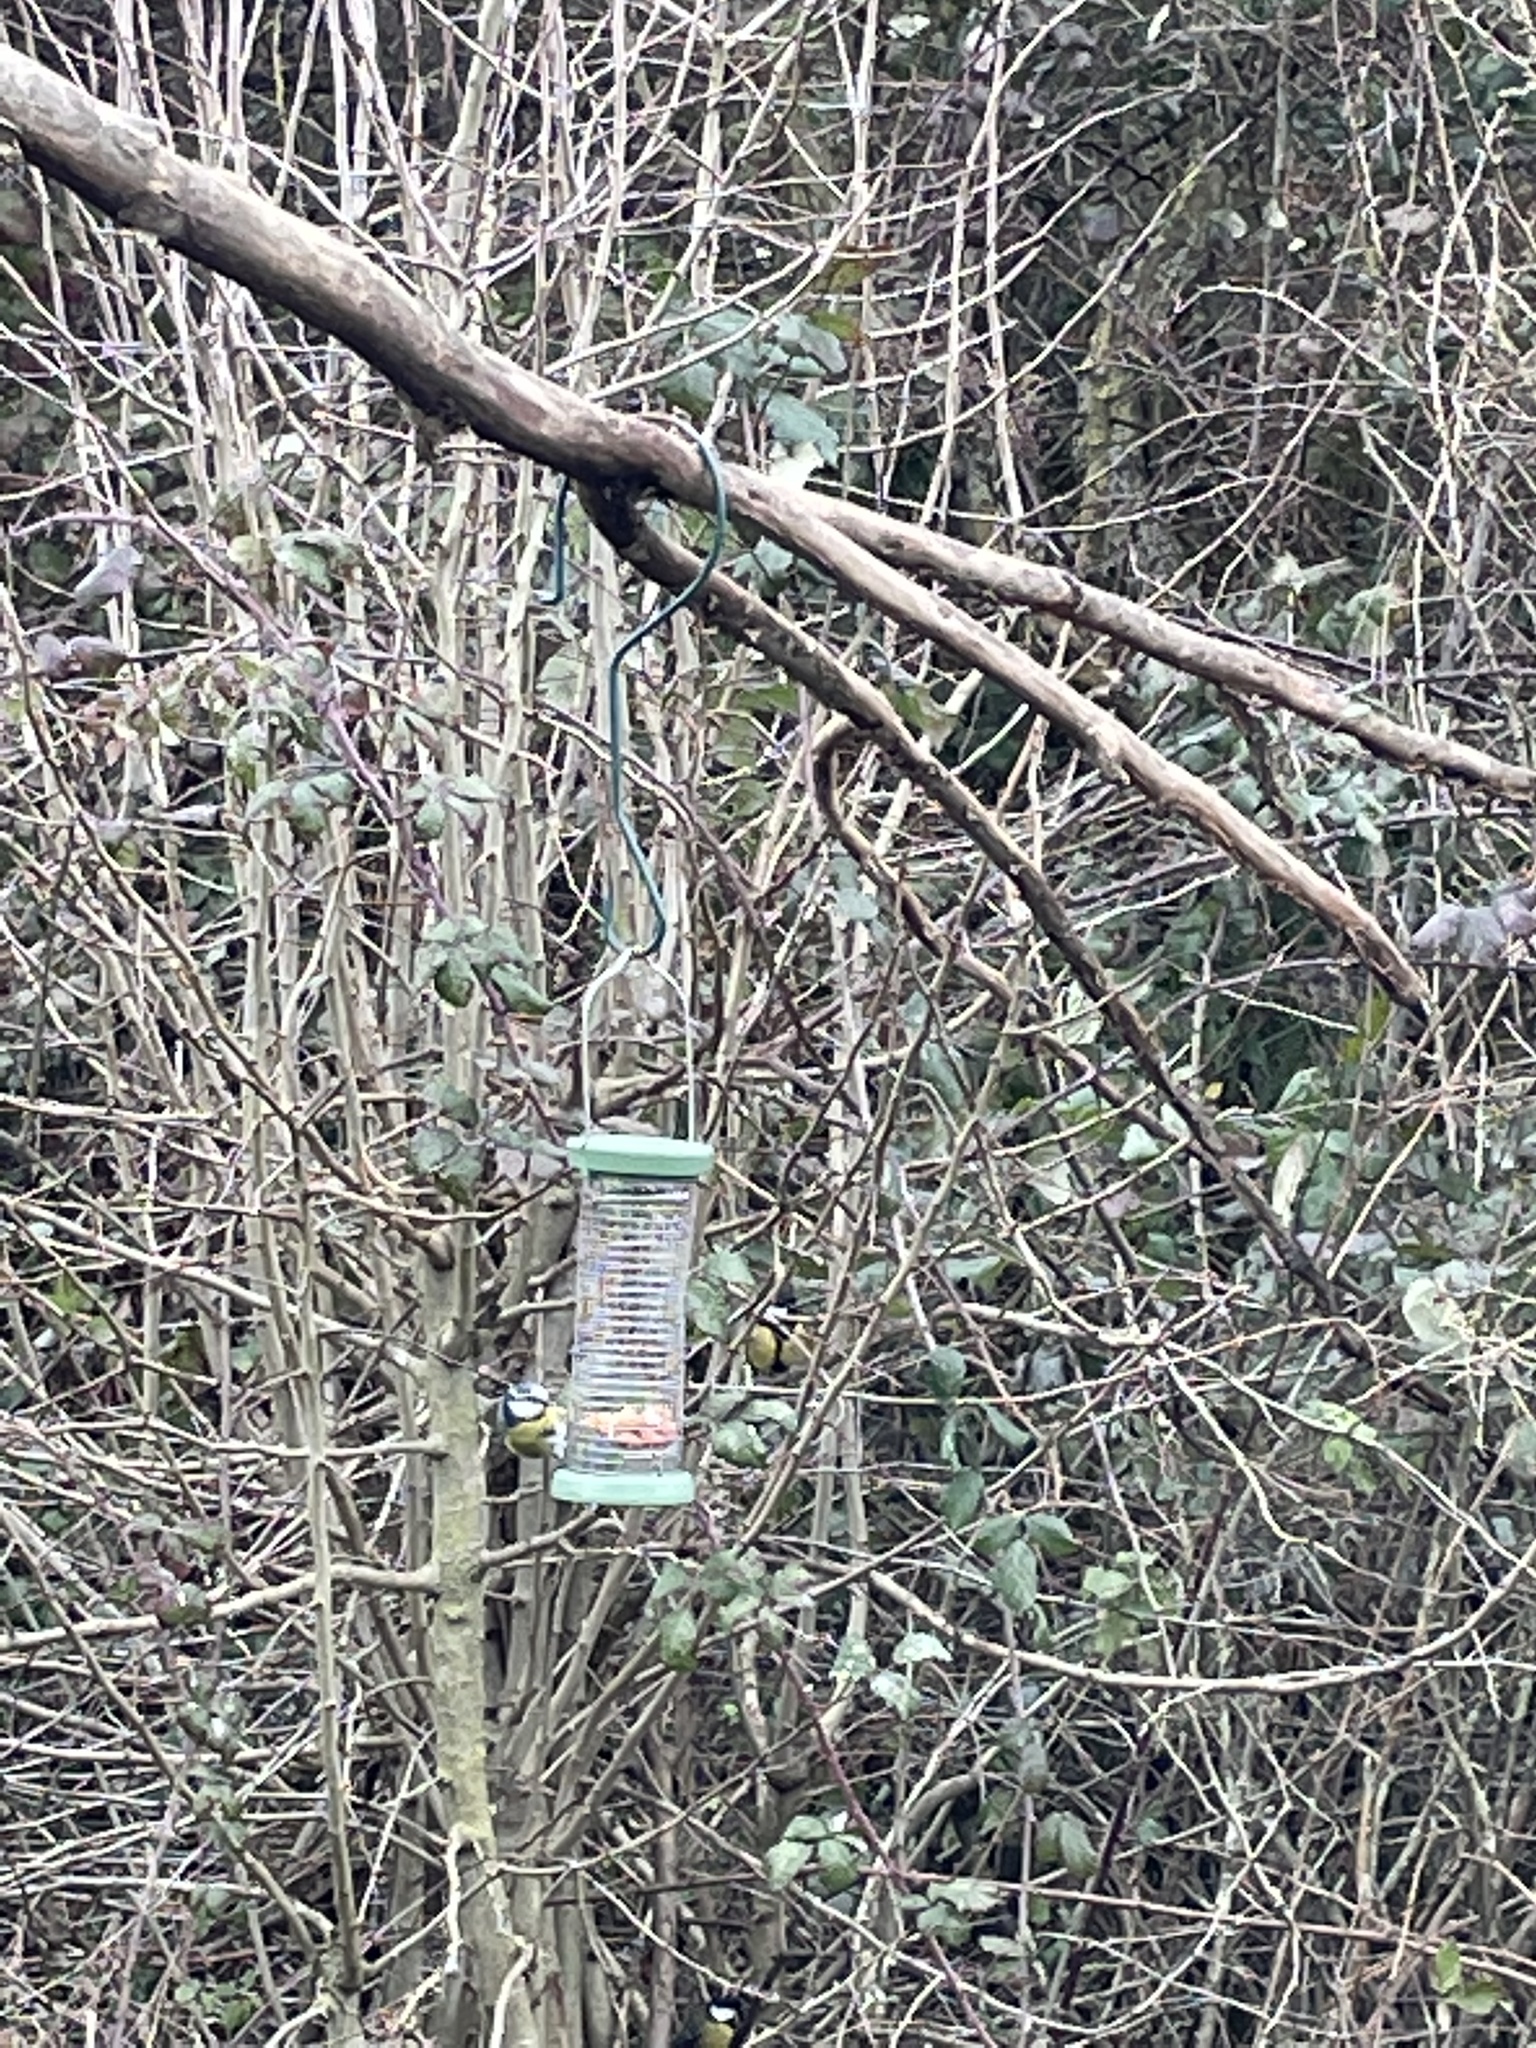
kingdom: Animalia
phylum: Chordata
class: Aves
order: Passeriformes
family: Paridae
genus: Cyanistes
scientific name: Cyanistes caeruleus
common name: Eurasian blue tit
